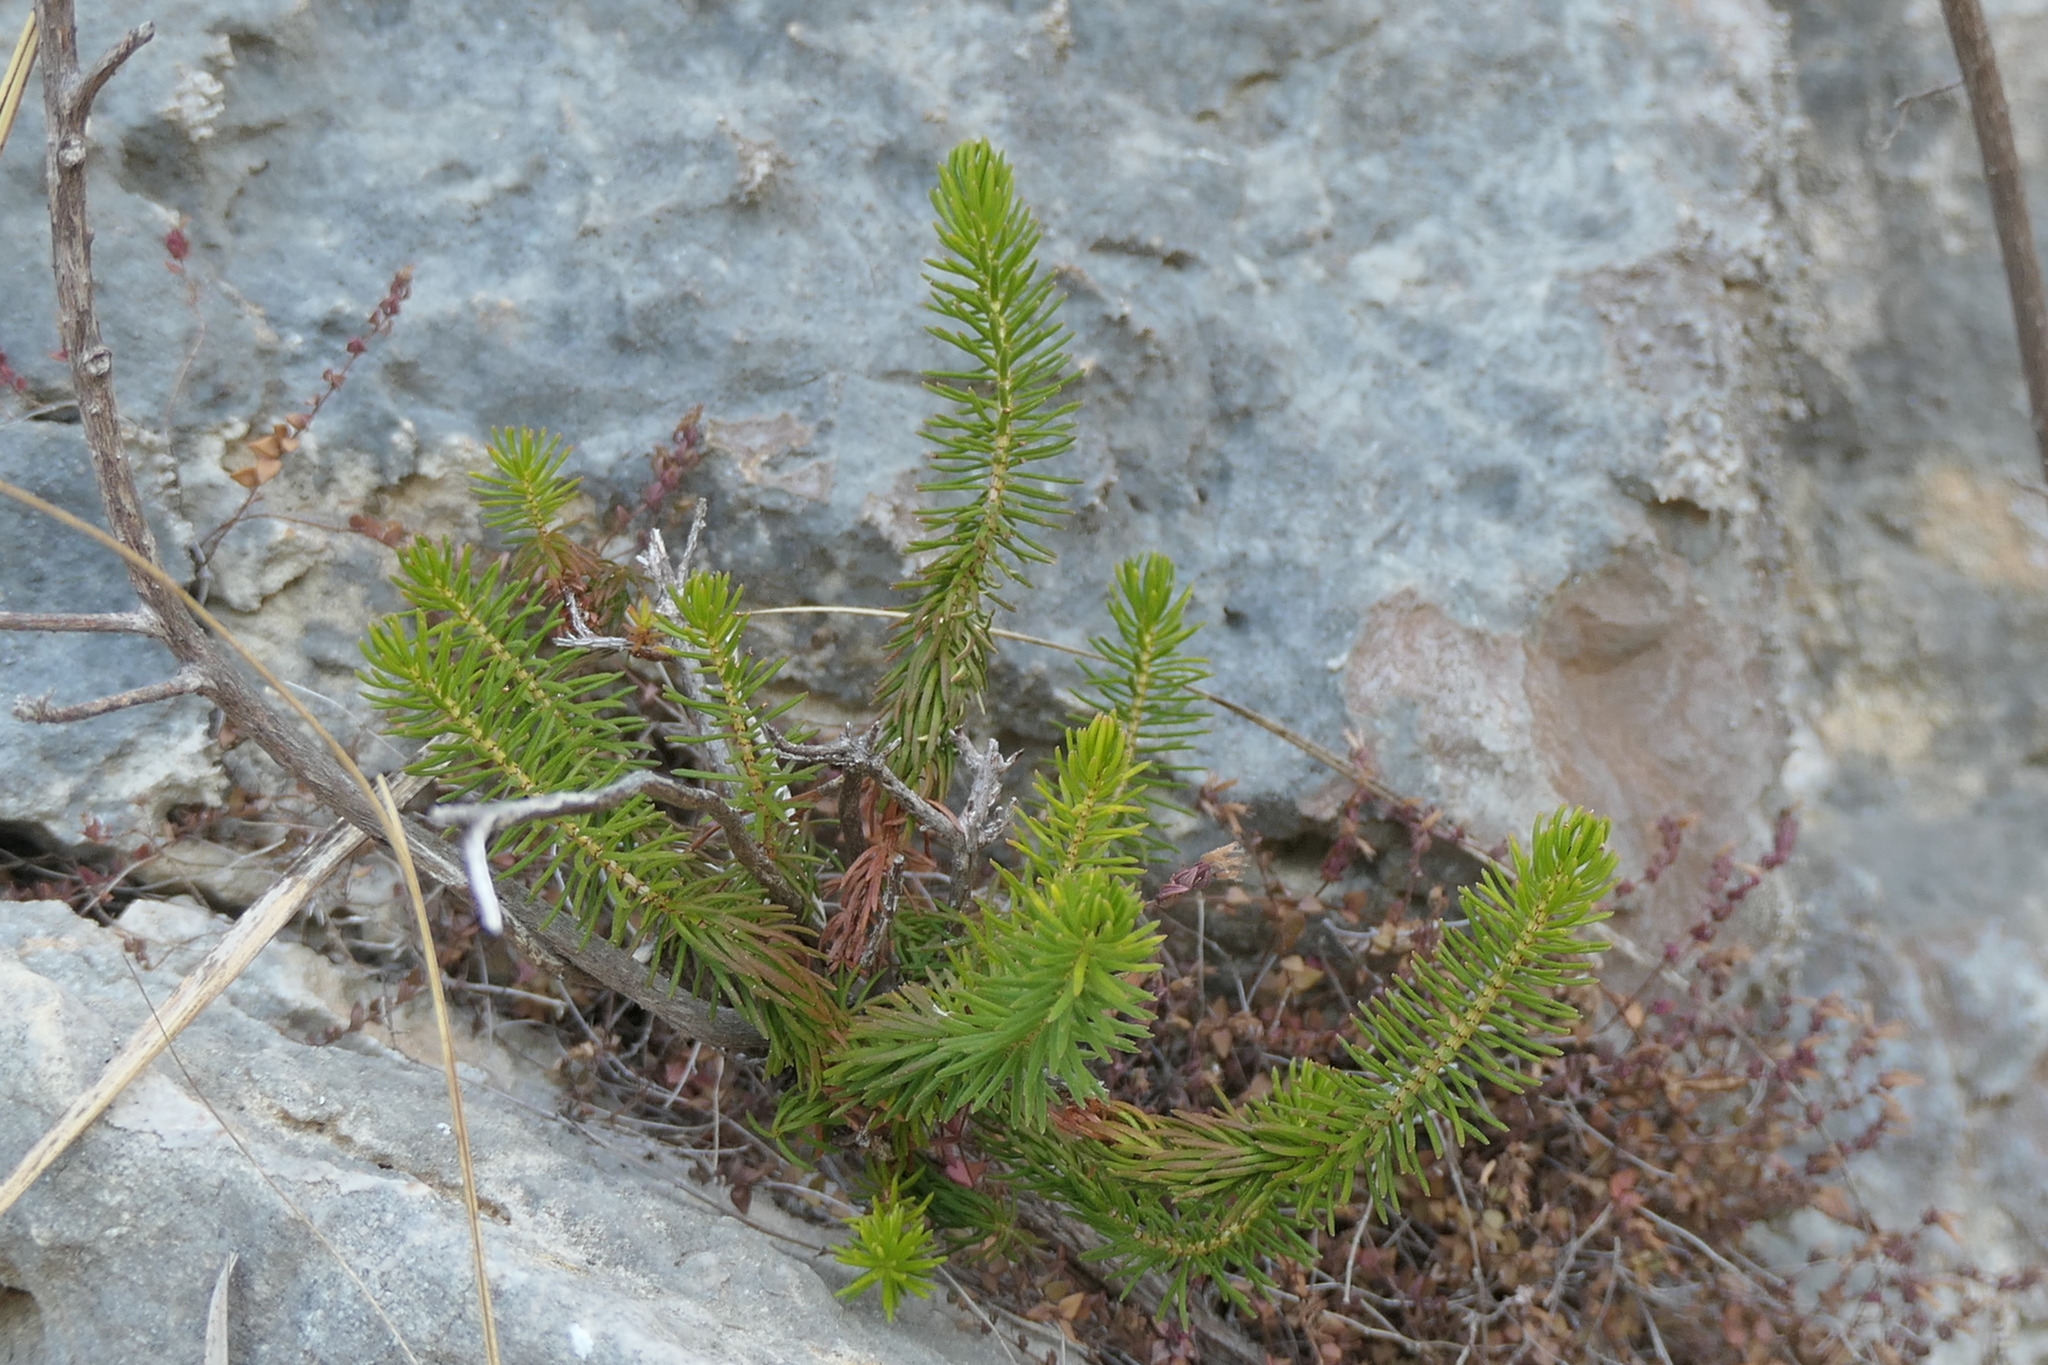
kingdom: Plantae
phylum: Tracheophyta
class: Magnoliopsida
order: Ericales
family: Ericaceae
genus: Erica
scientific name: Erica multiflora
